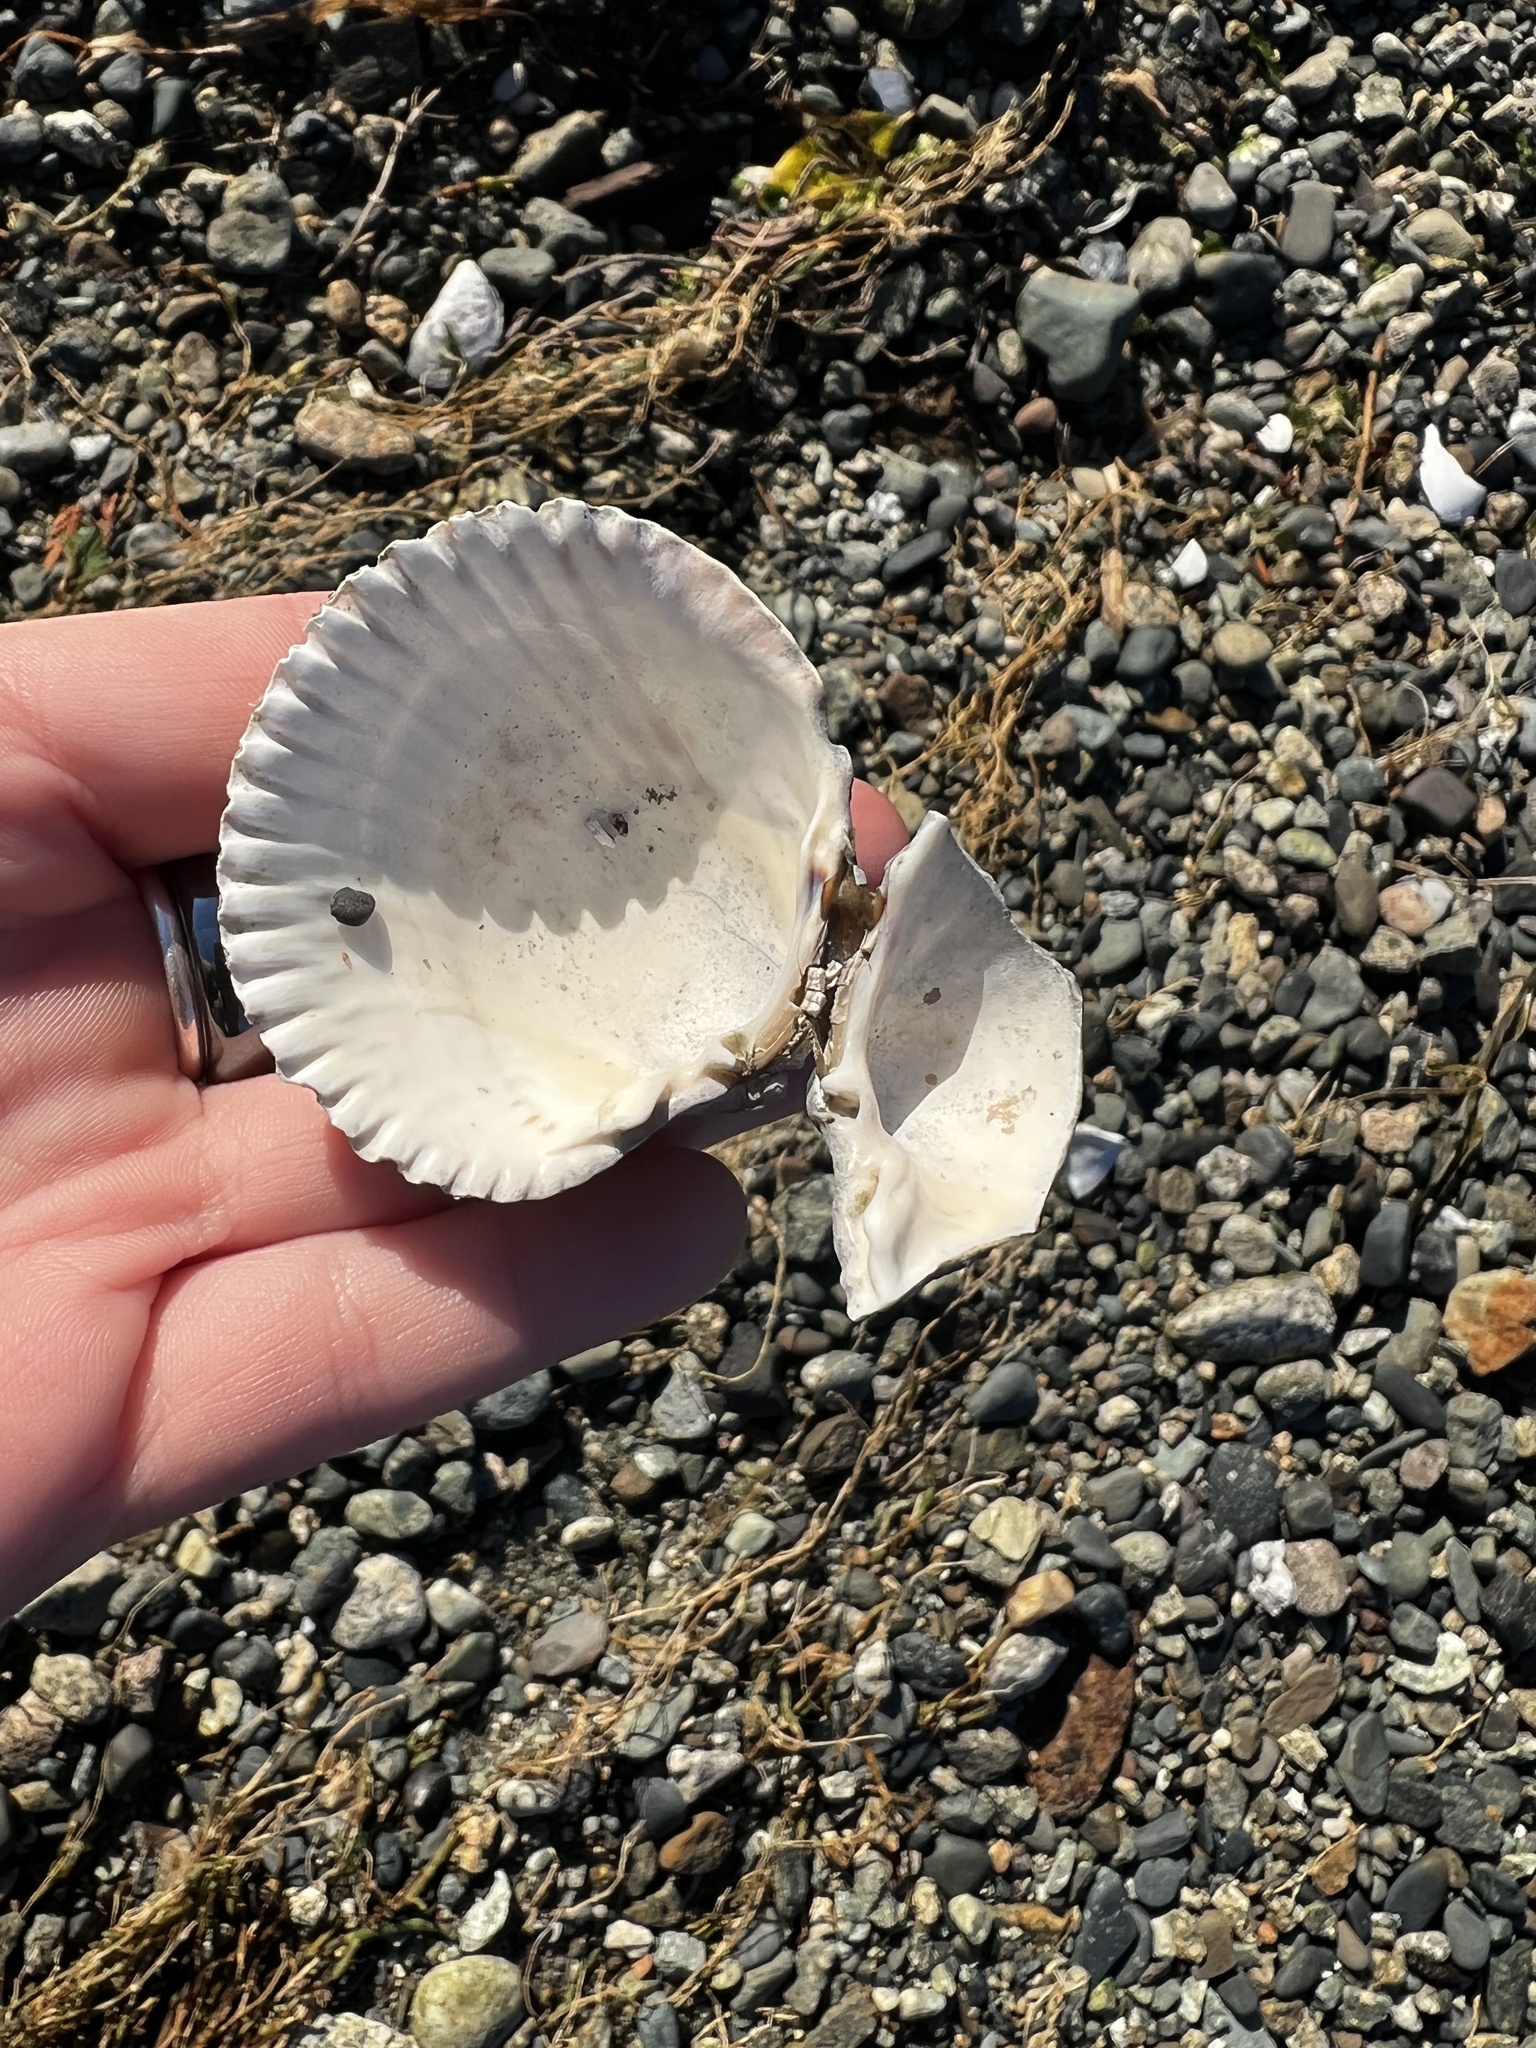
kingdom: Animalia
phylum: Mollusca
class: Bivalvia
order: Cardiida
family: Cardiidae
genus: Clinocardium
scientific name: Clinocardium nuttallii
